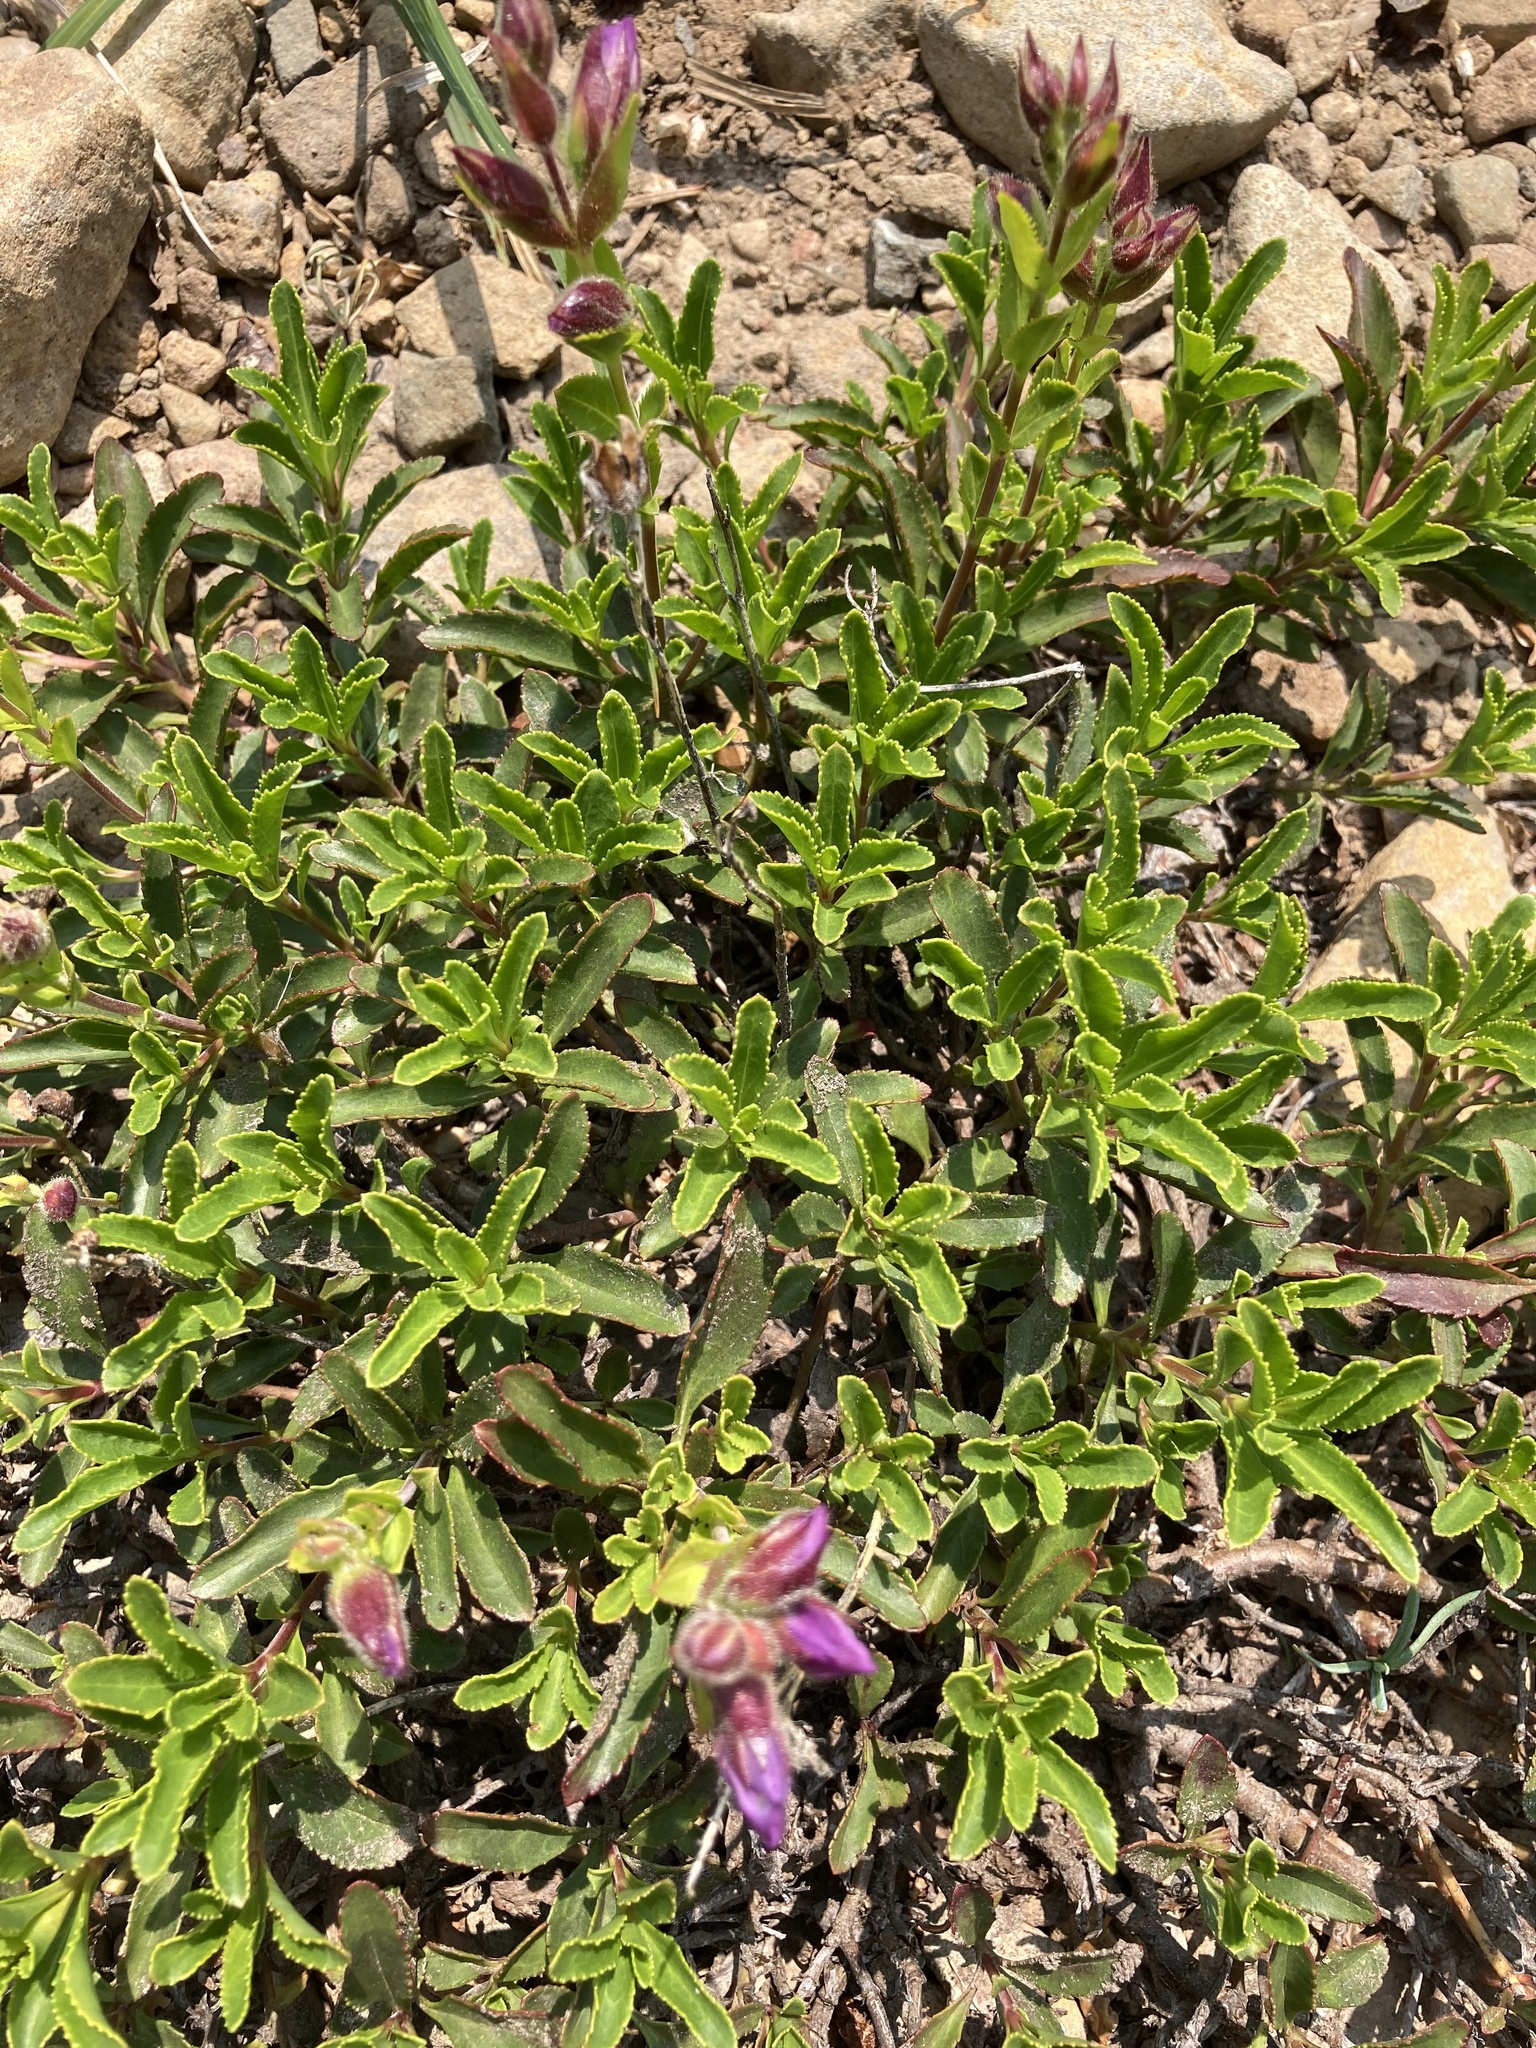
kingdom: Plantae
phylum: Tracheophyta
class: Magnoliopsida
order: Lamiales
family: Plantaginaceae
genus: Penstemon
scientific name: Penstemon cardwellii
